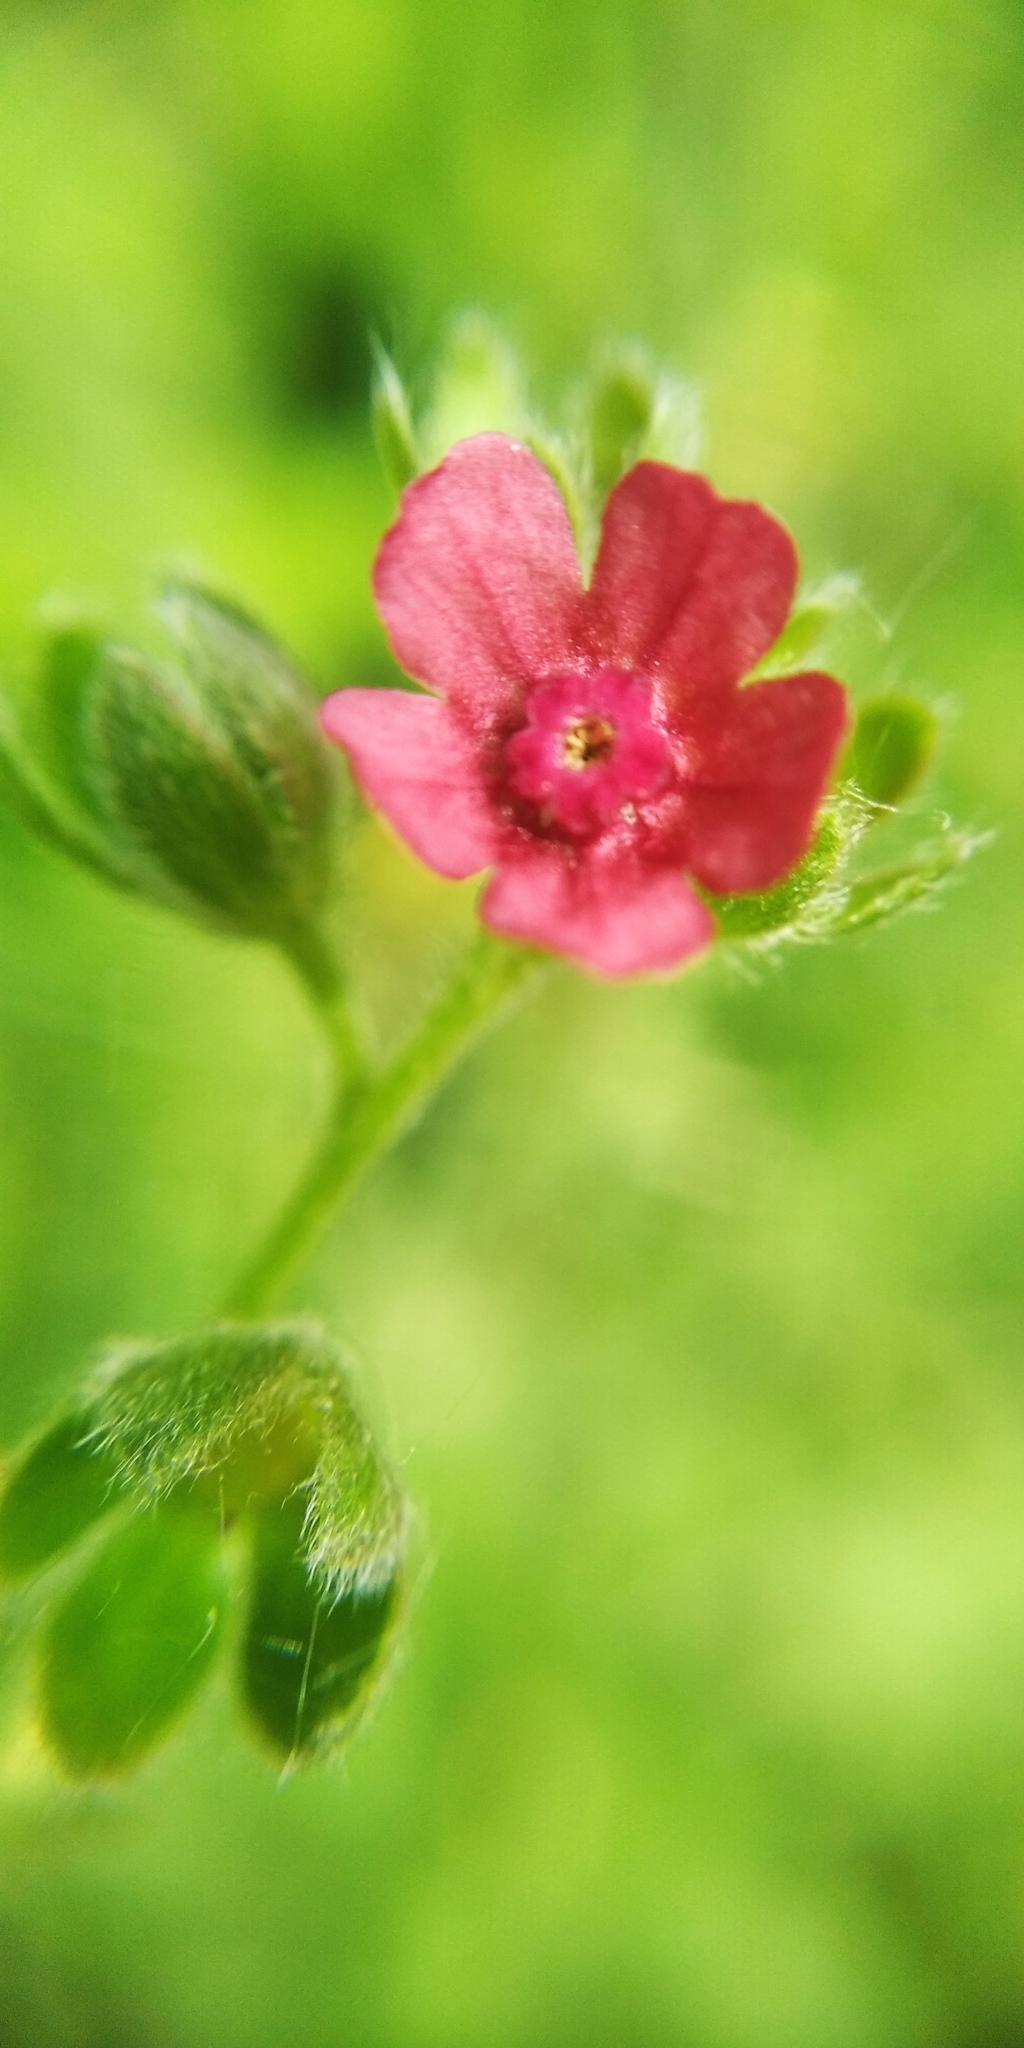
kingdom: Plantae
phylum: Tracheophyta
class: Magnoliopsida
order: Boraginales
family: Boraginaceae
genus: Cynoglossum
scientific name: Cynoglossum officinale
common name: Hound's-tongue
